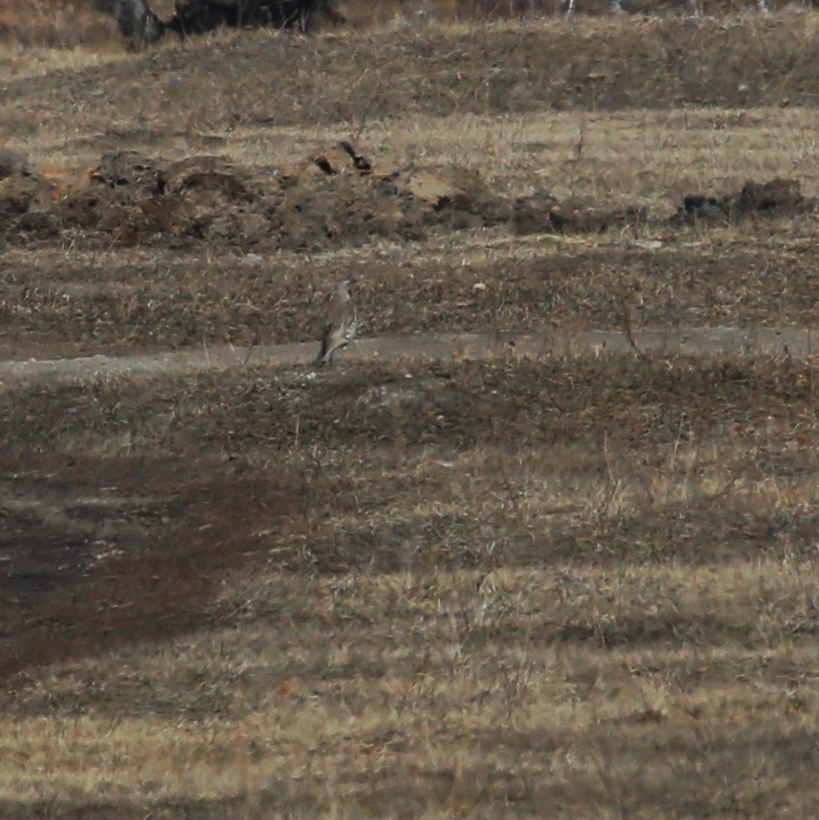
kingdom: Animalia
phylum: Chordata
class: Aves
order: Passeriformes
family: Turdidae
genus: Turdus
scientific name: Turdus pilaris
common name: Fieldfare
